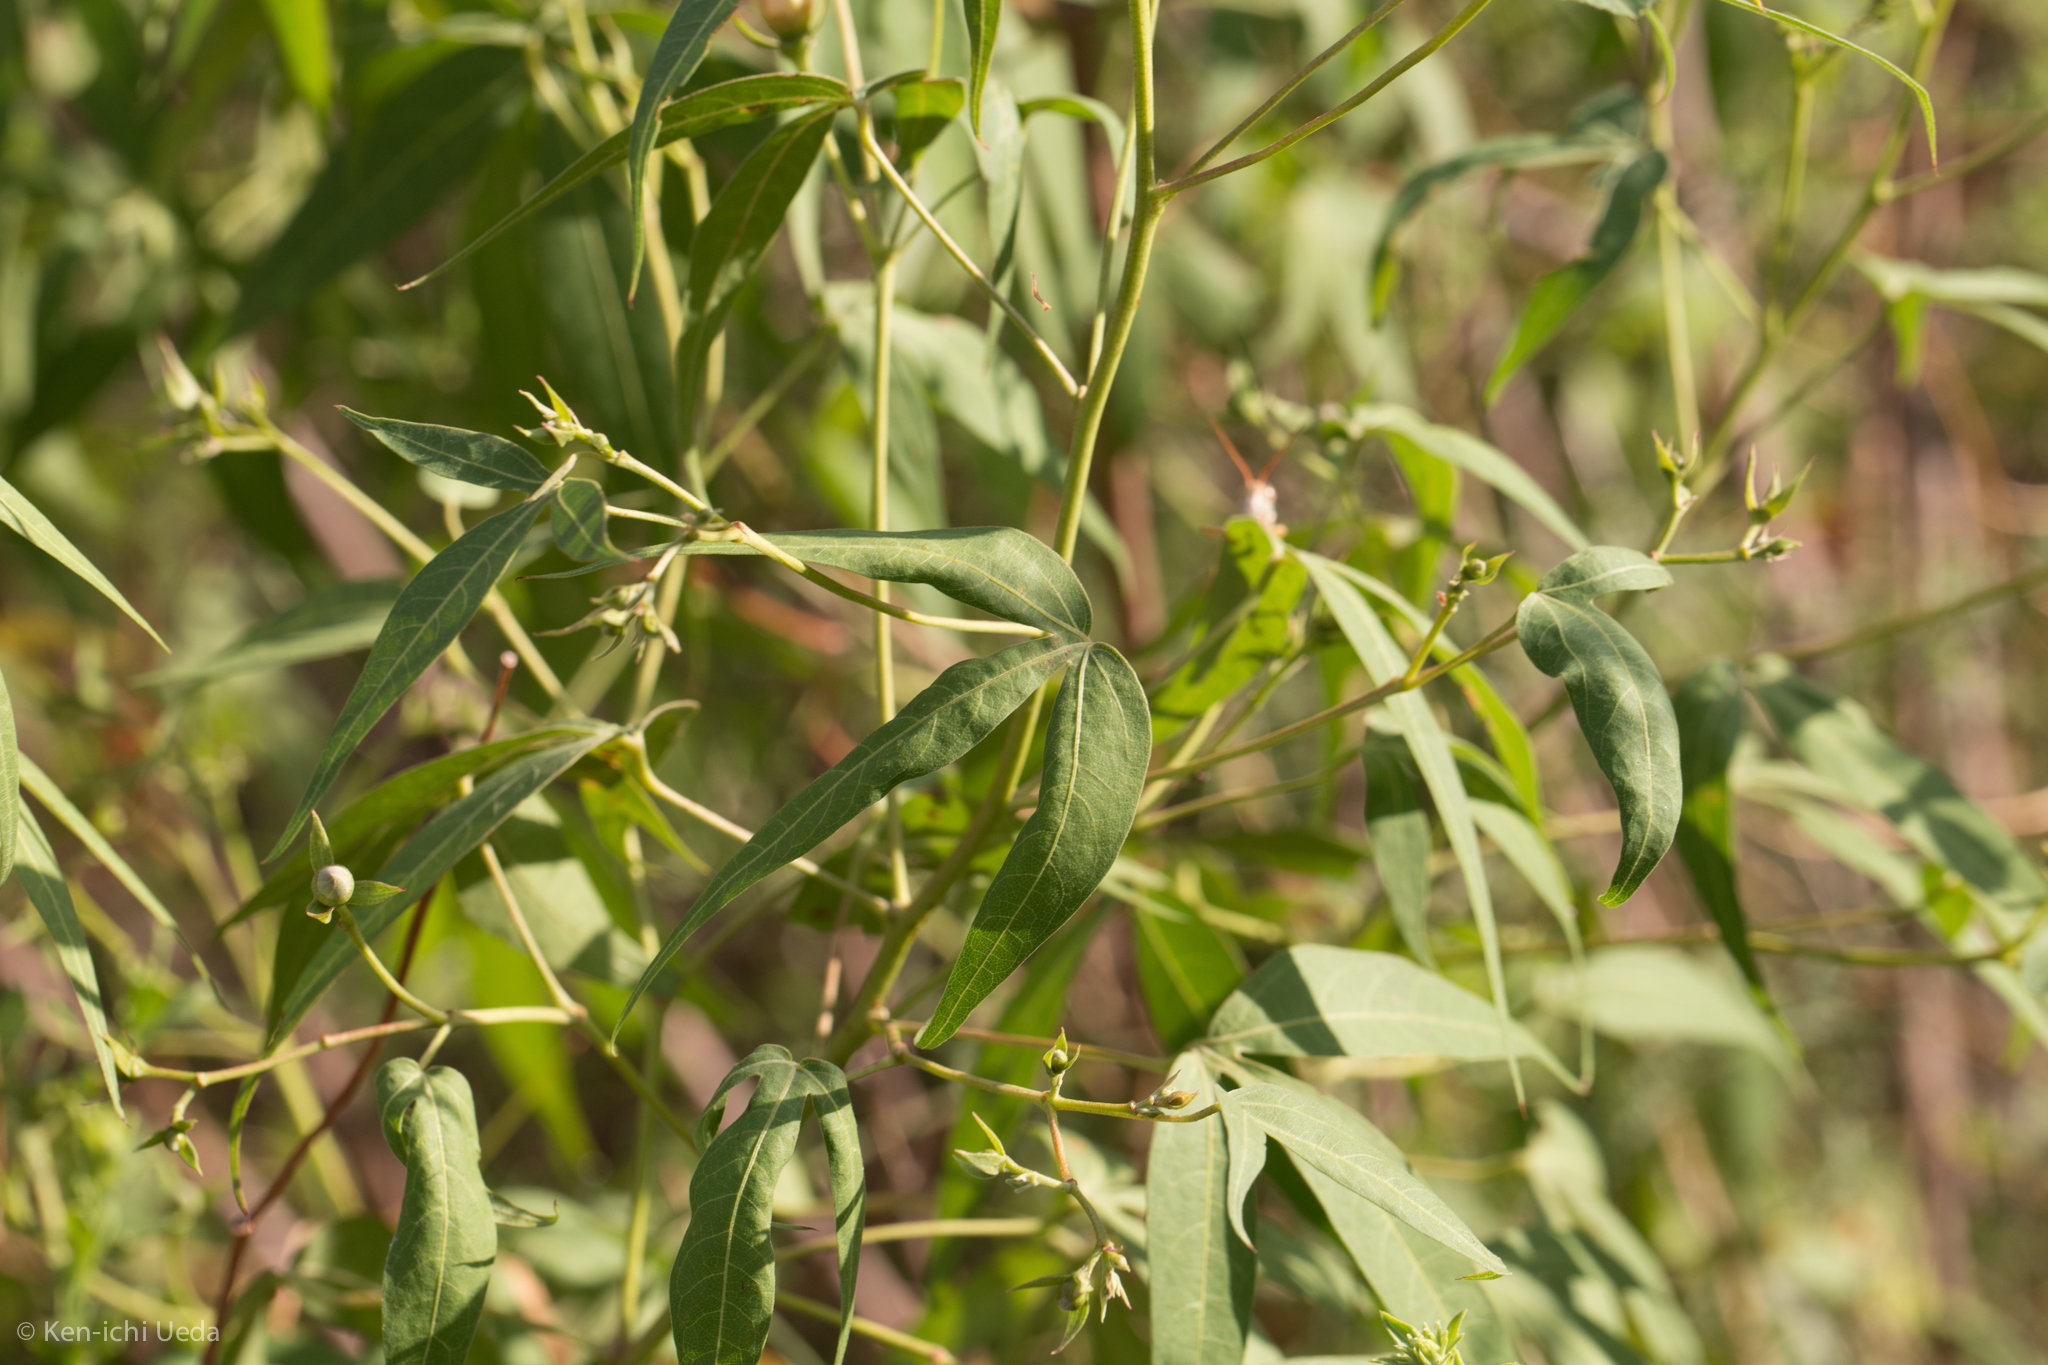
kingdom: Plantae
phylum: Tracheophyta
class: Magnoliopsida
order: Malvales
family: Malvaceae
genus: Gossypium
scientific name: Gossypium thurberi
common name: Desert cotton
